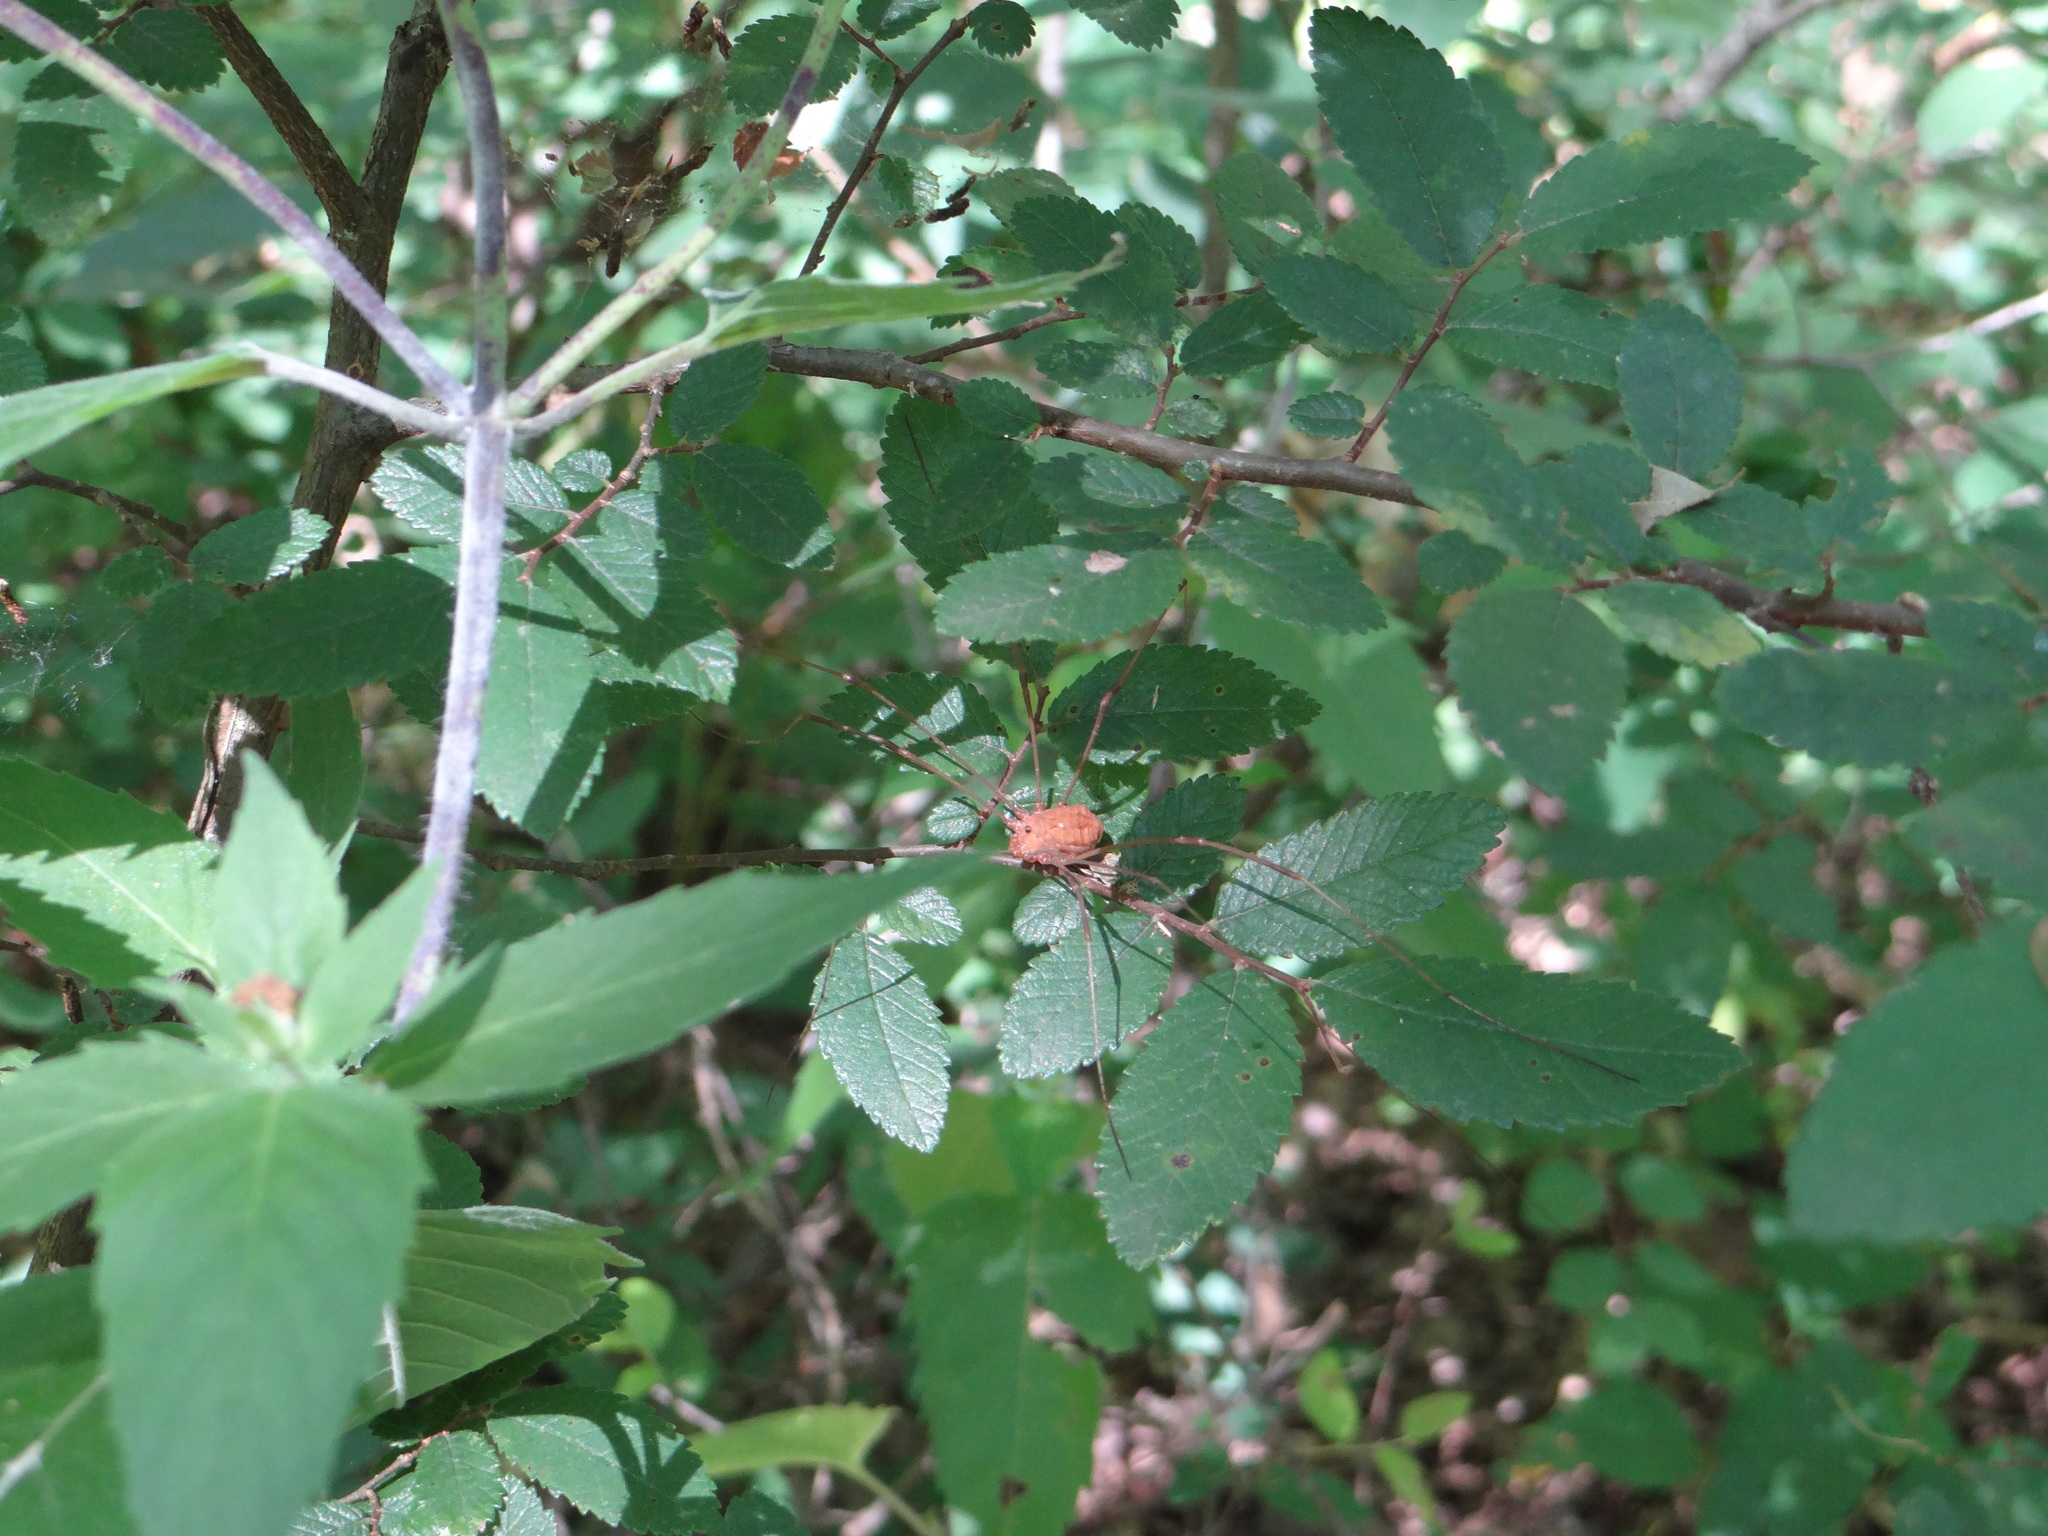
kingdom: Animalia
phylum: Arthropoda
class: Arachnida
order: Opiliones
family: Sclerosomatidae
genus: Leiobunum
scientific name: Leiobunum flavum
